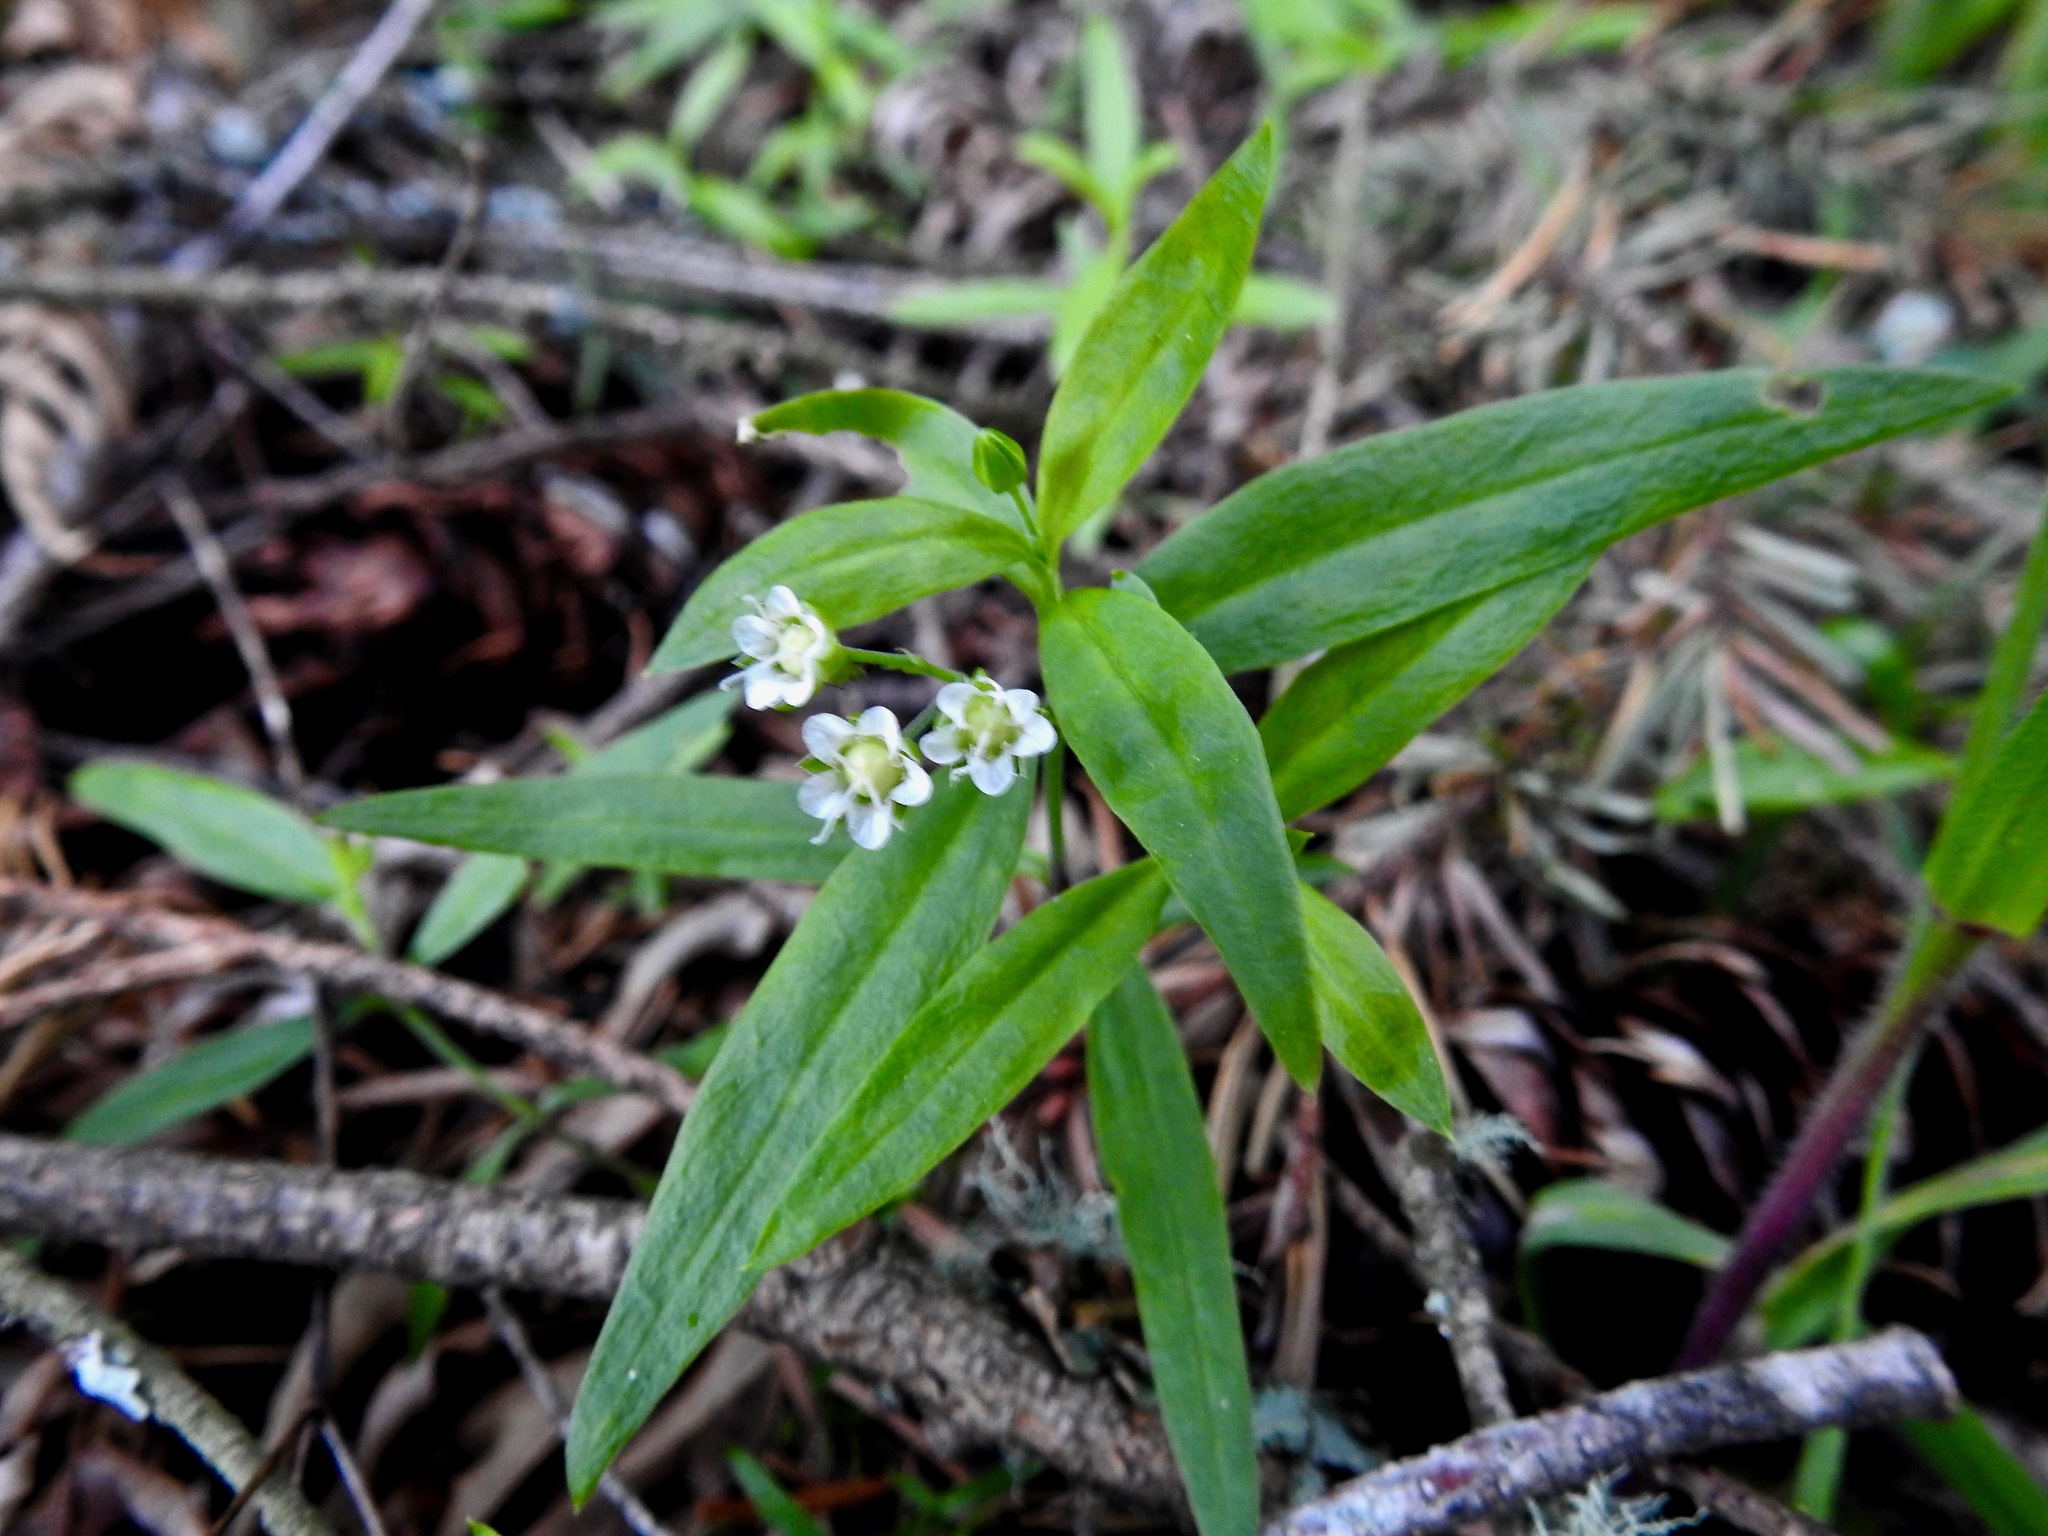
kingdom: Plantae
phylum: Tracheophyta
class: Magnoliopsida
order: Caryophyllales
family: Caryophyllaceae
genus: Moehringia
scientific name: Moehringia macrophylla
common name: Big-leaf sandwort
